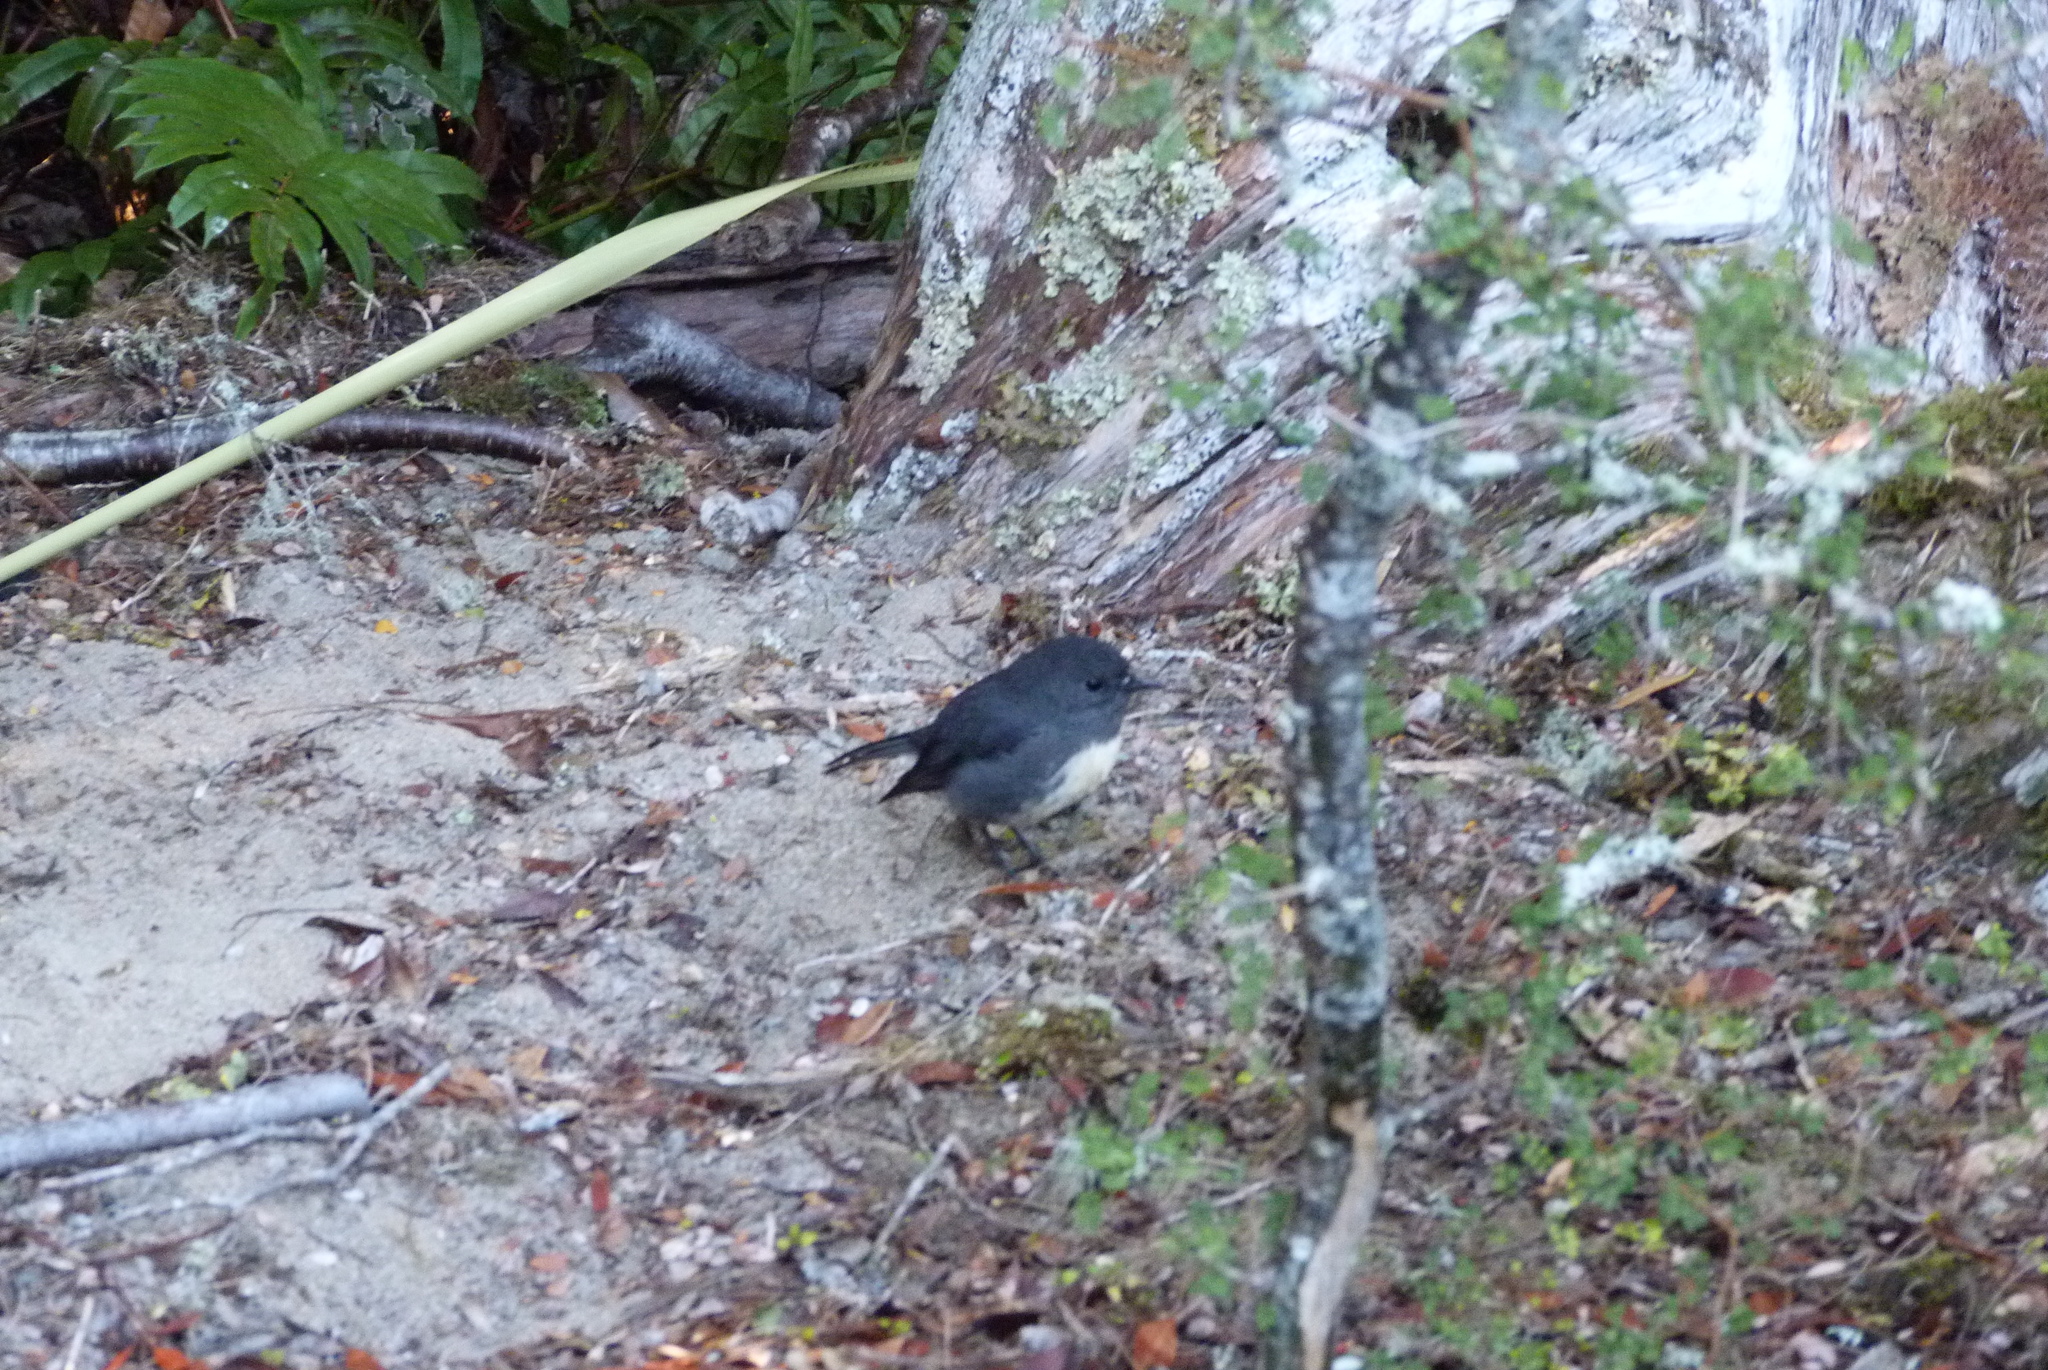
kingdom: Animalia
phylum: Chordata
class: Aves
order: Passeriformes
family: Petroicidae
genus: Petroica
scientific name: Petroica australis
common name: New zealand robin
